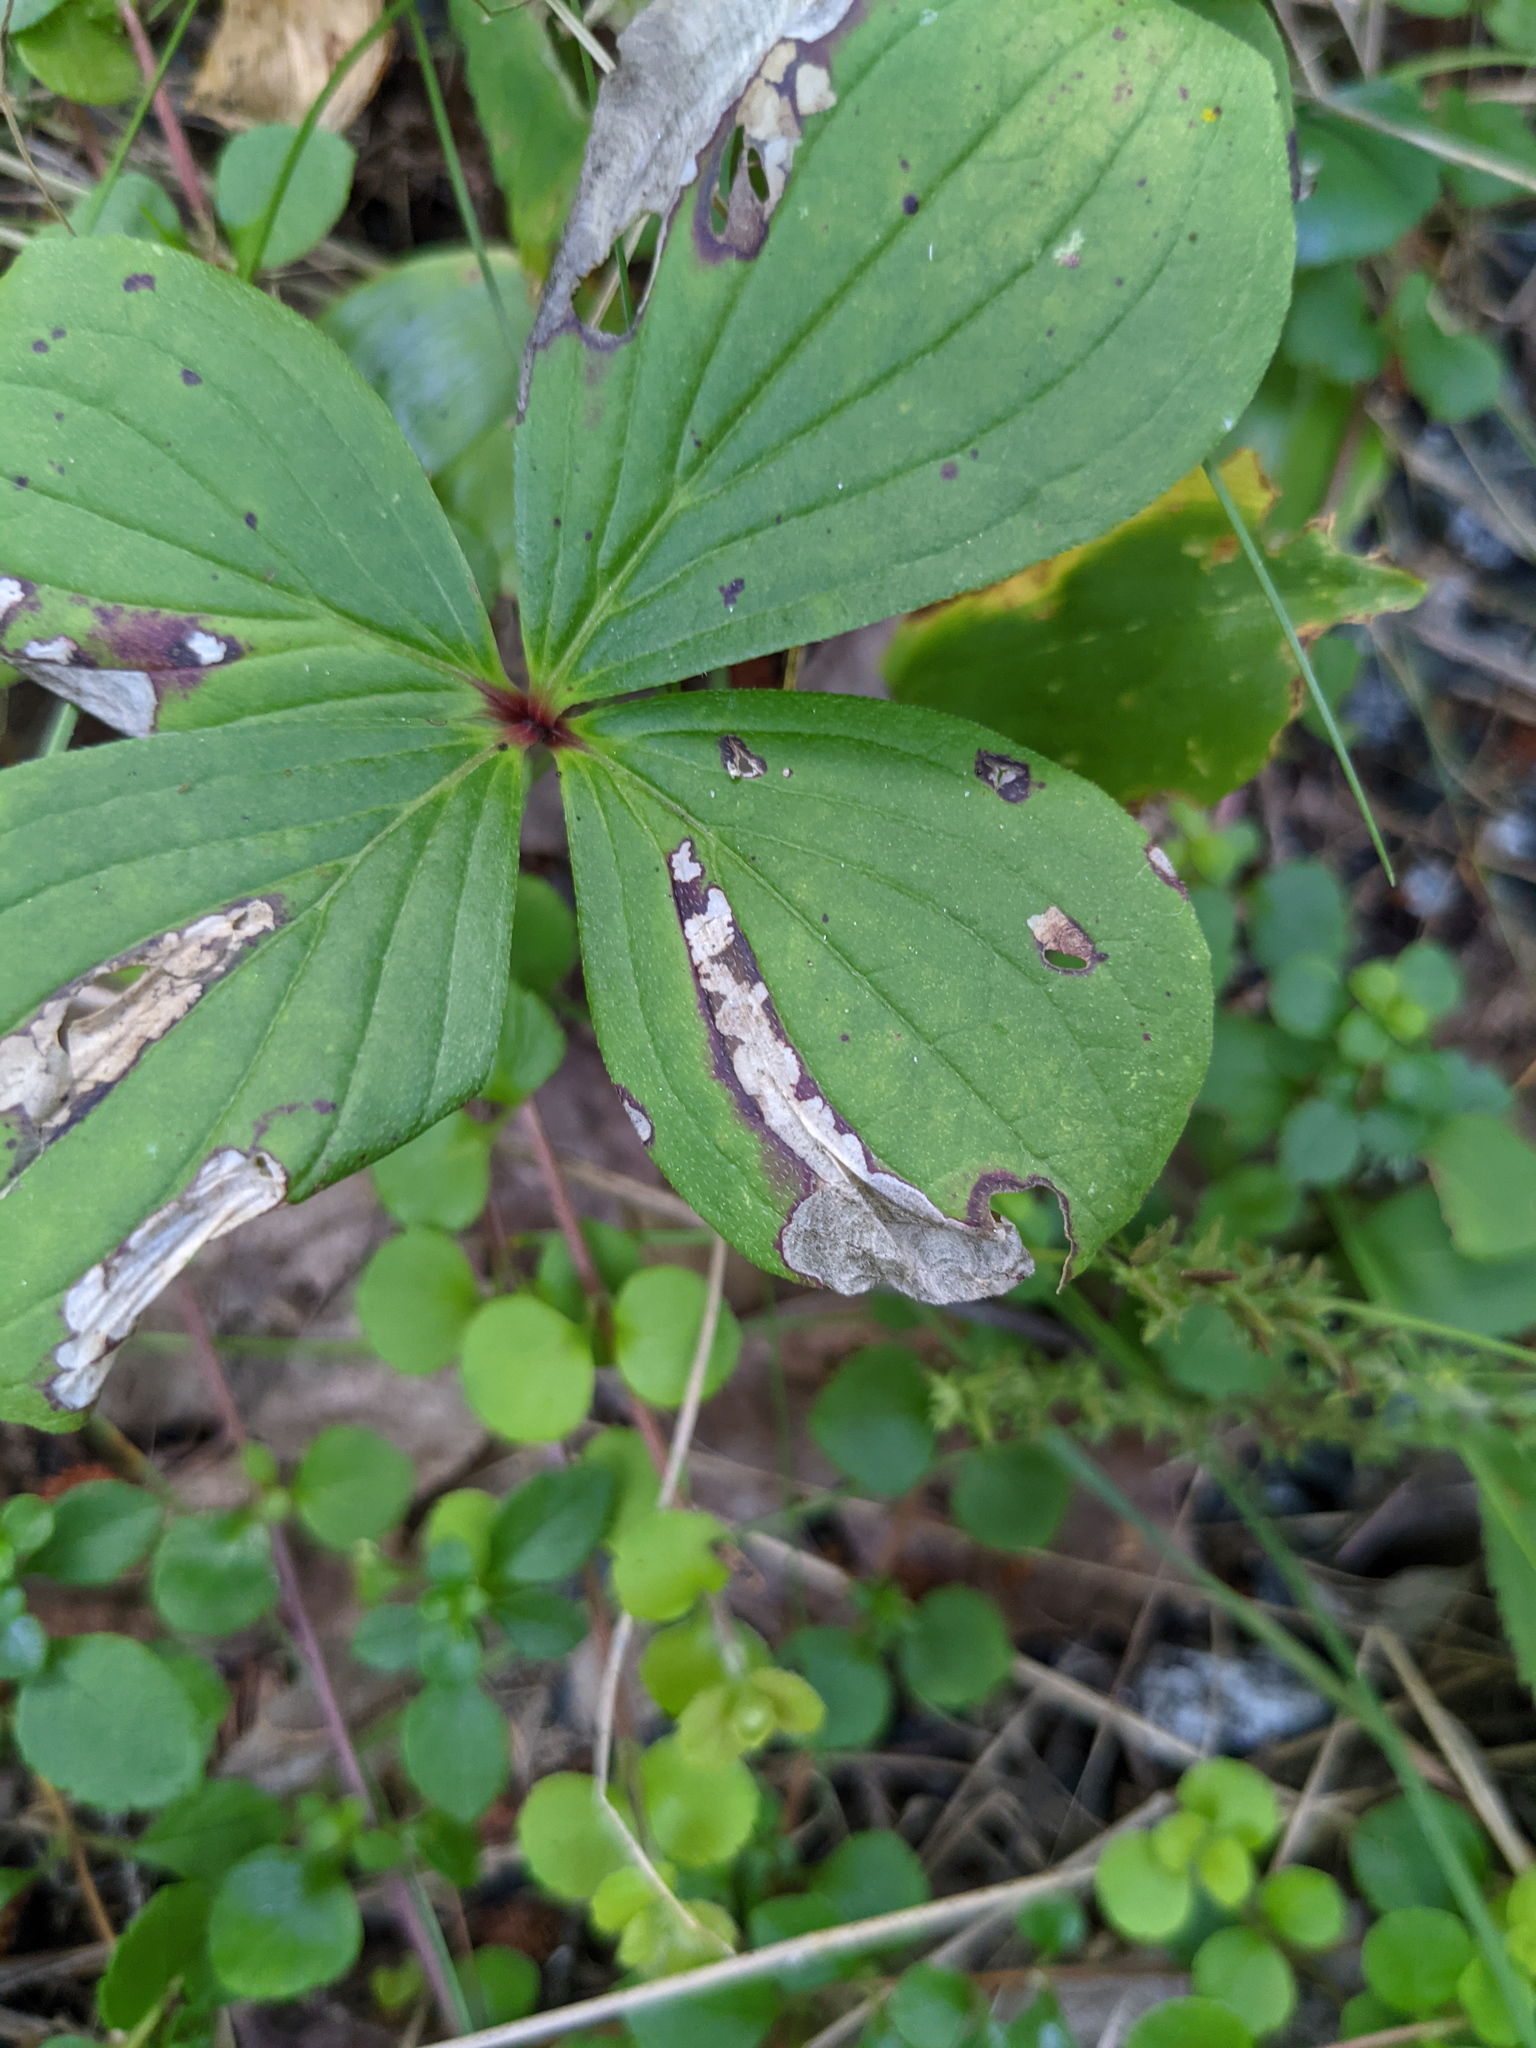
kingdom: Plantae
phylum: Tracheophyta
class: Magnoliopsida
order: Cornales
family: Cornaceae
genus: Cornus
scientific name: Cornus canadensis
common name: Creeping dogwood
